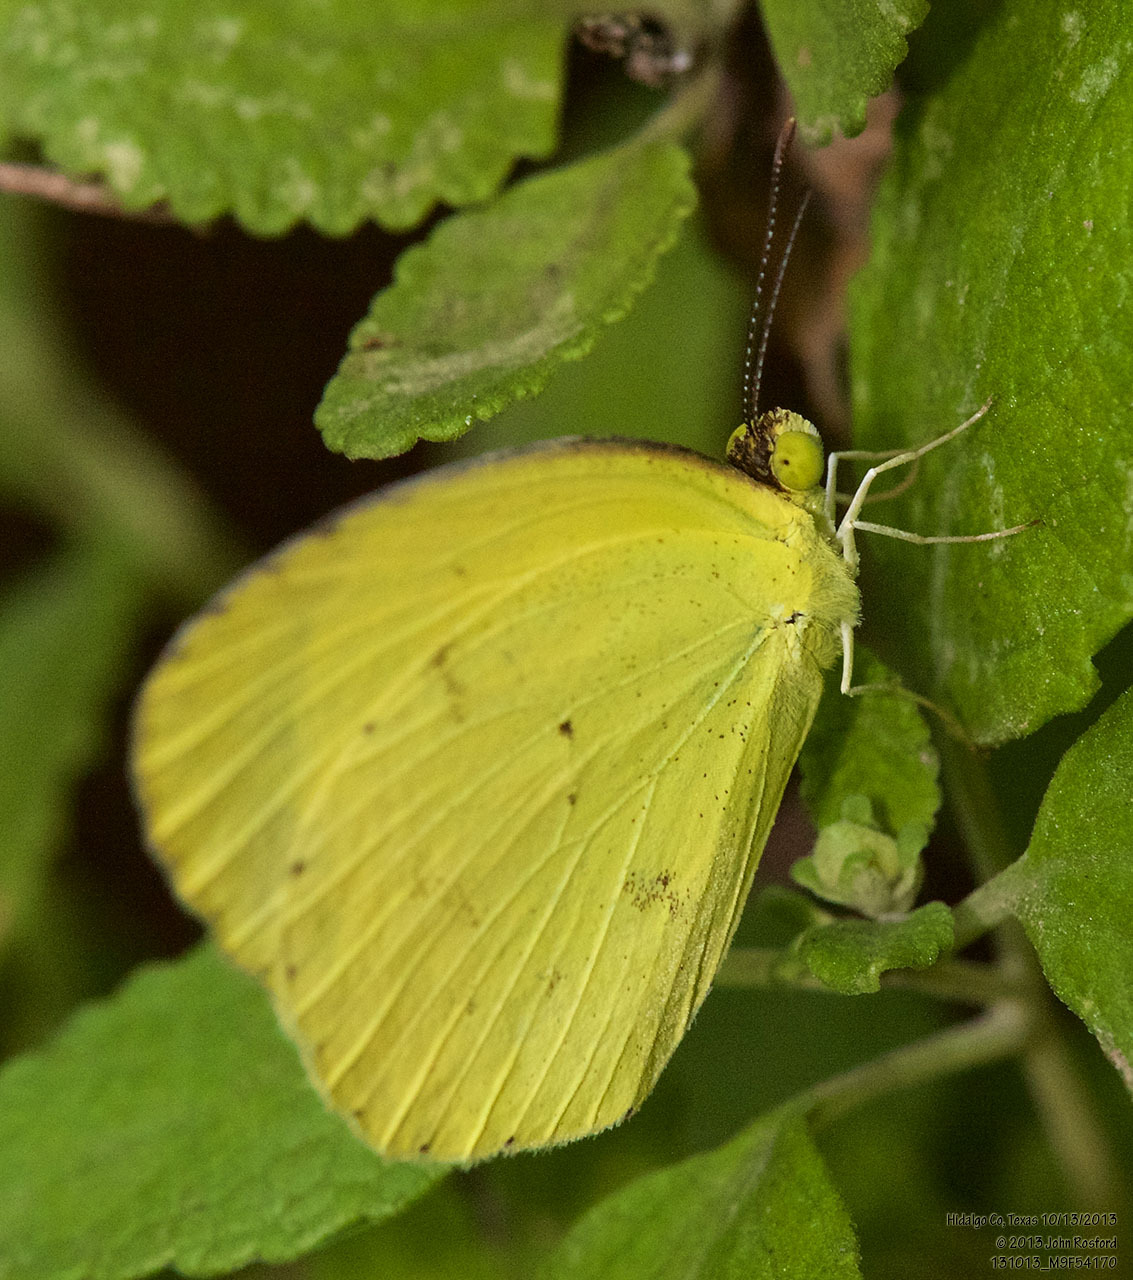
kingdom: Animalia
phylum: Arthropoda
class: Insecta
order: Lepidoptera
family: Pieridae
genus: Pyrisitia
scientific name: Pyrisitia nise
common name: Mimosa yellow
